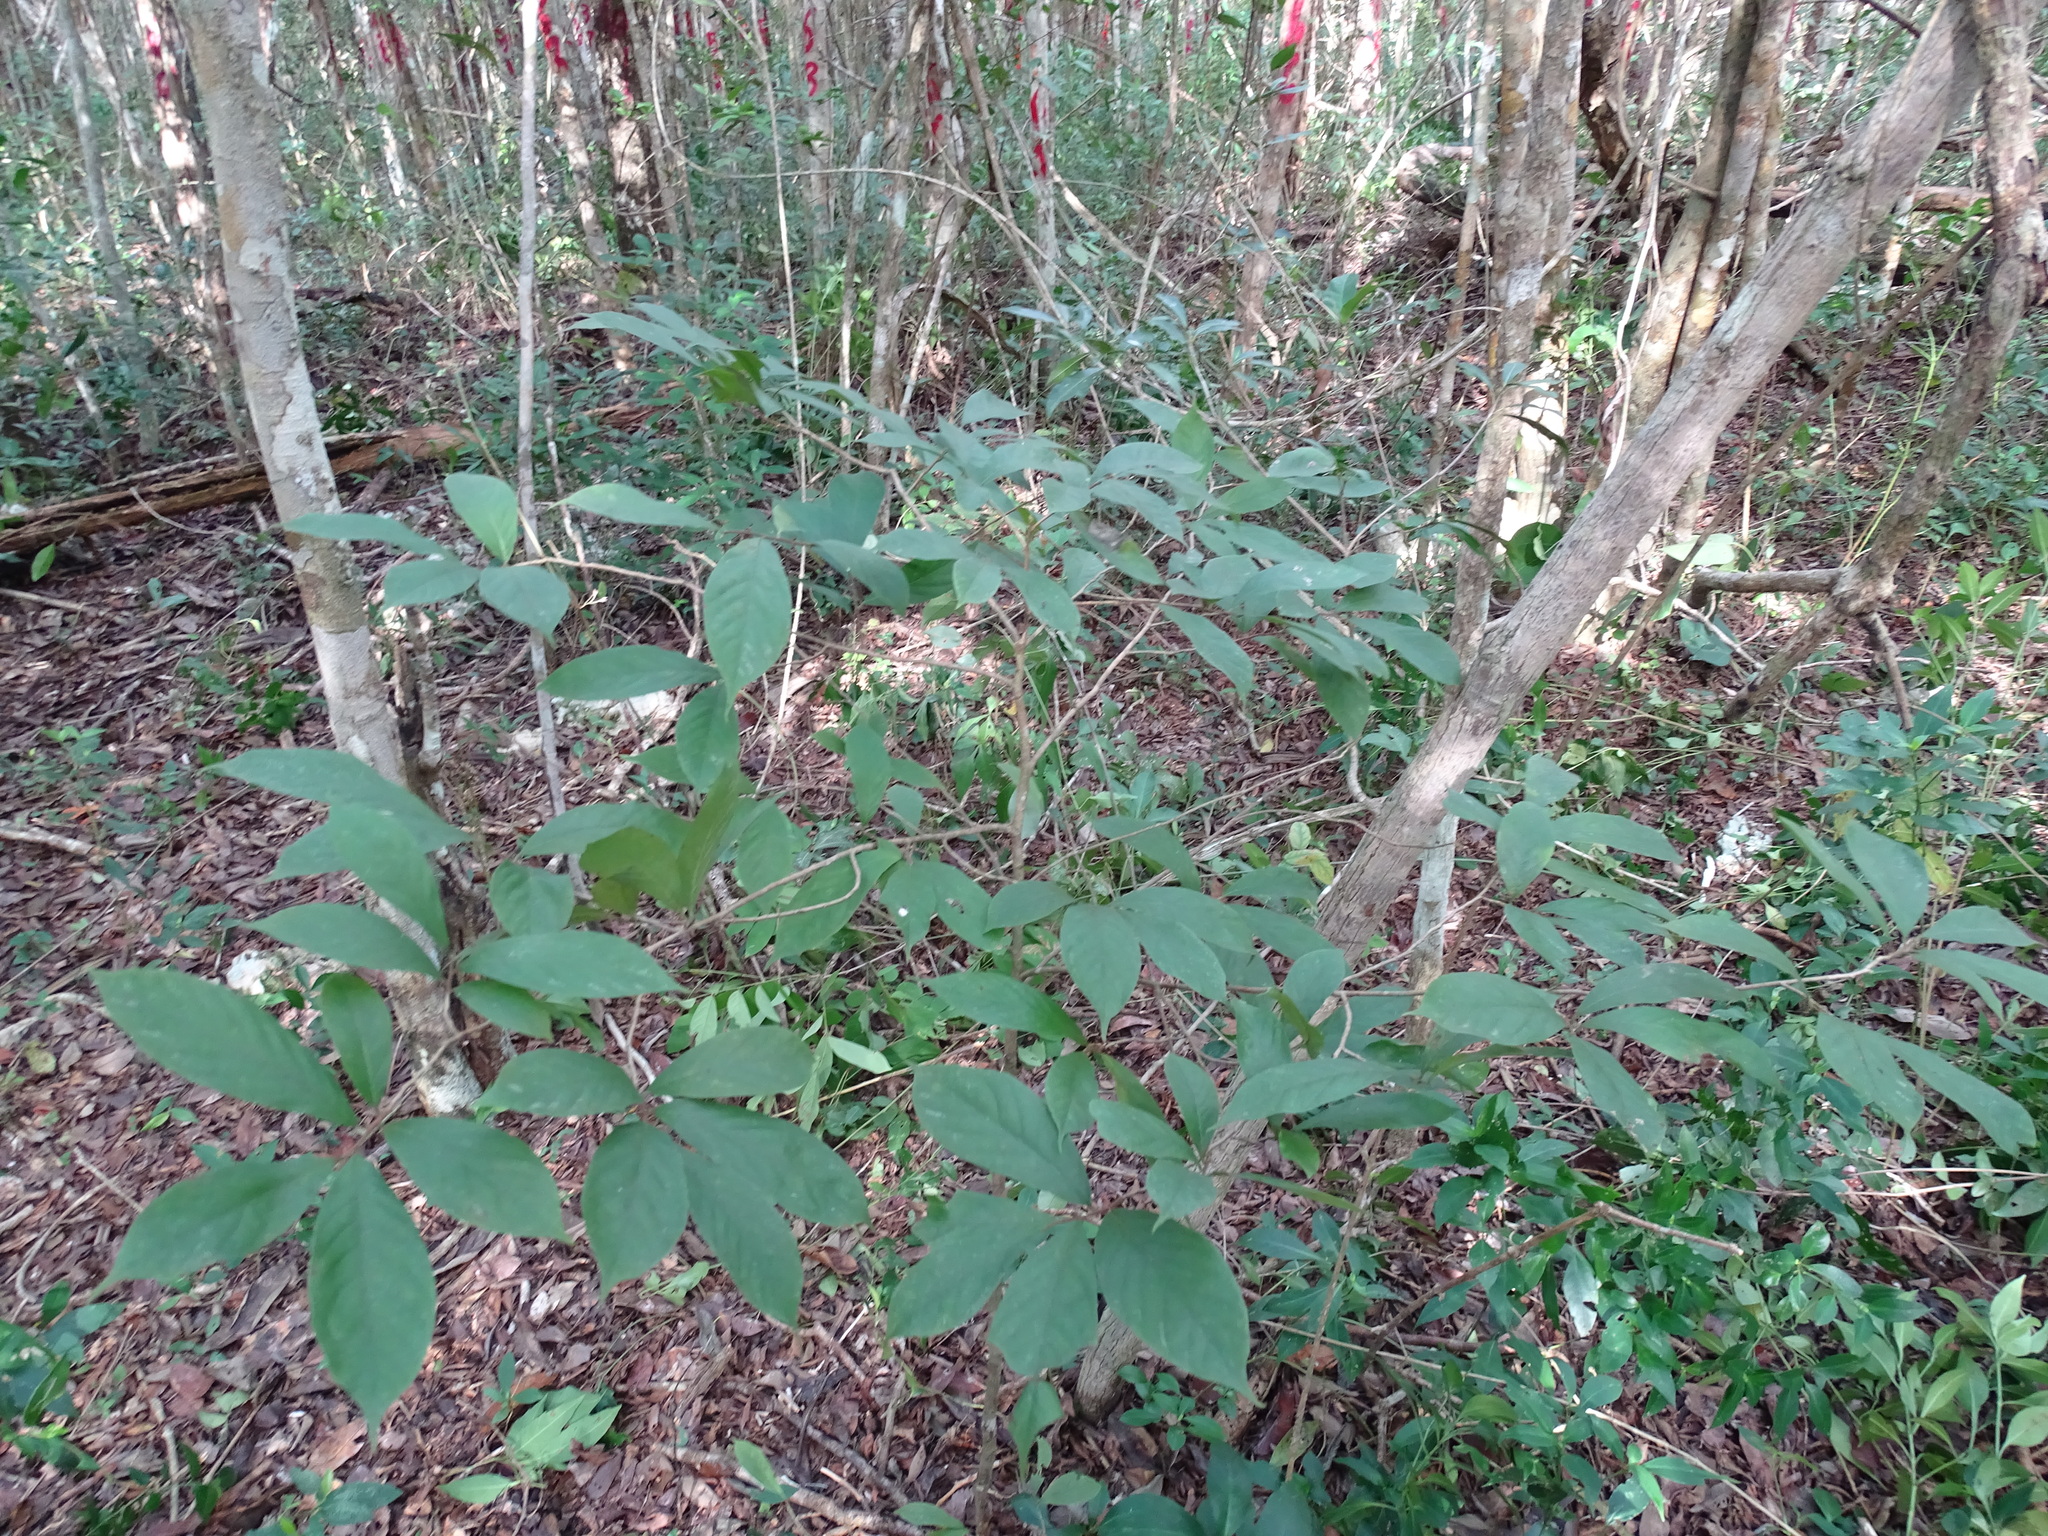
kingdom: Plantae
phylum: Tracheophyta
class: Magnoliopsida
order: Magnoliales
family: Annonaceae
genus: Sapranthus
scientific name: Sapranthus campechianus
